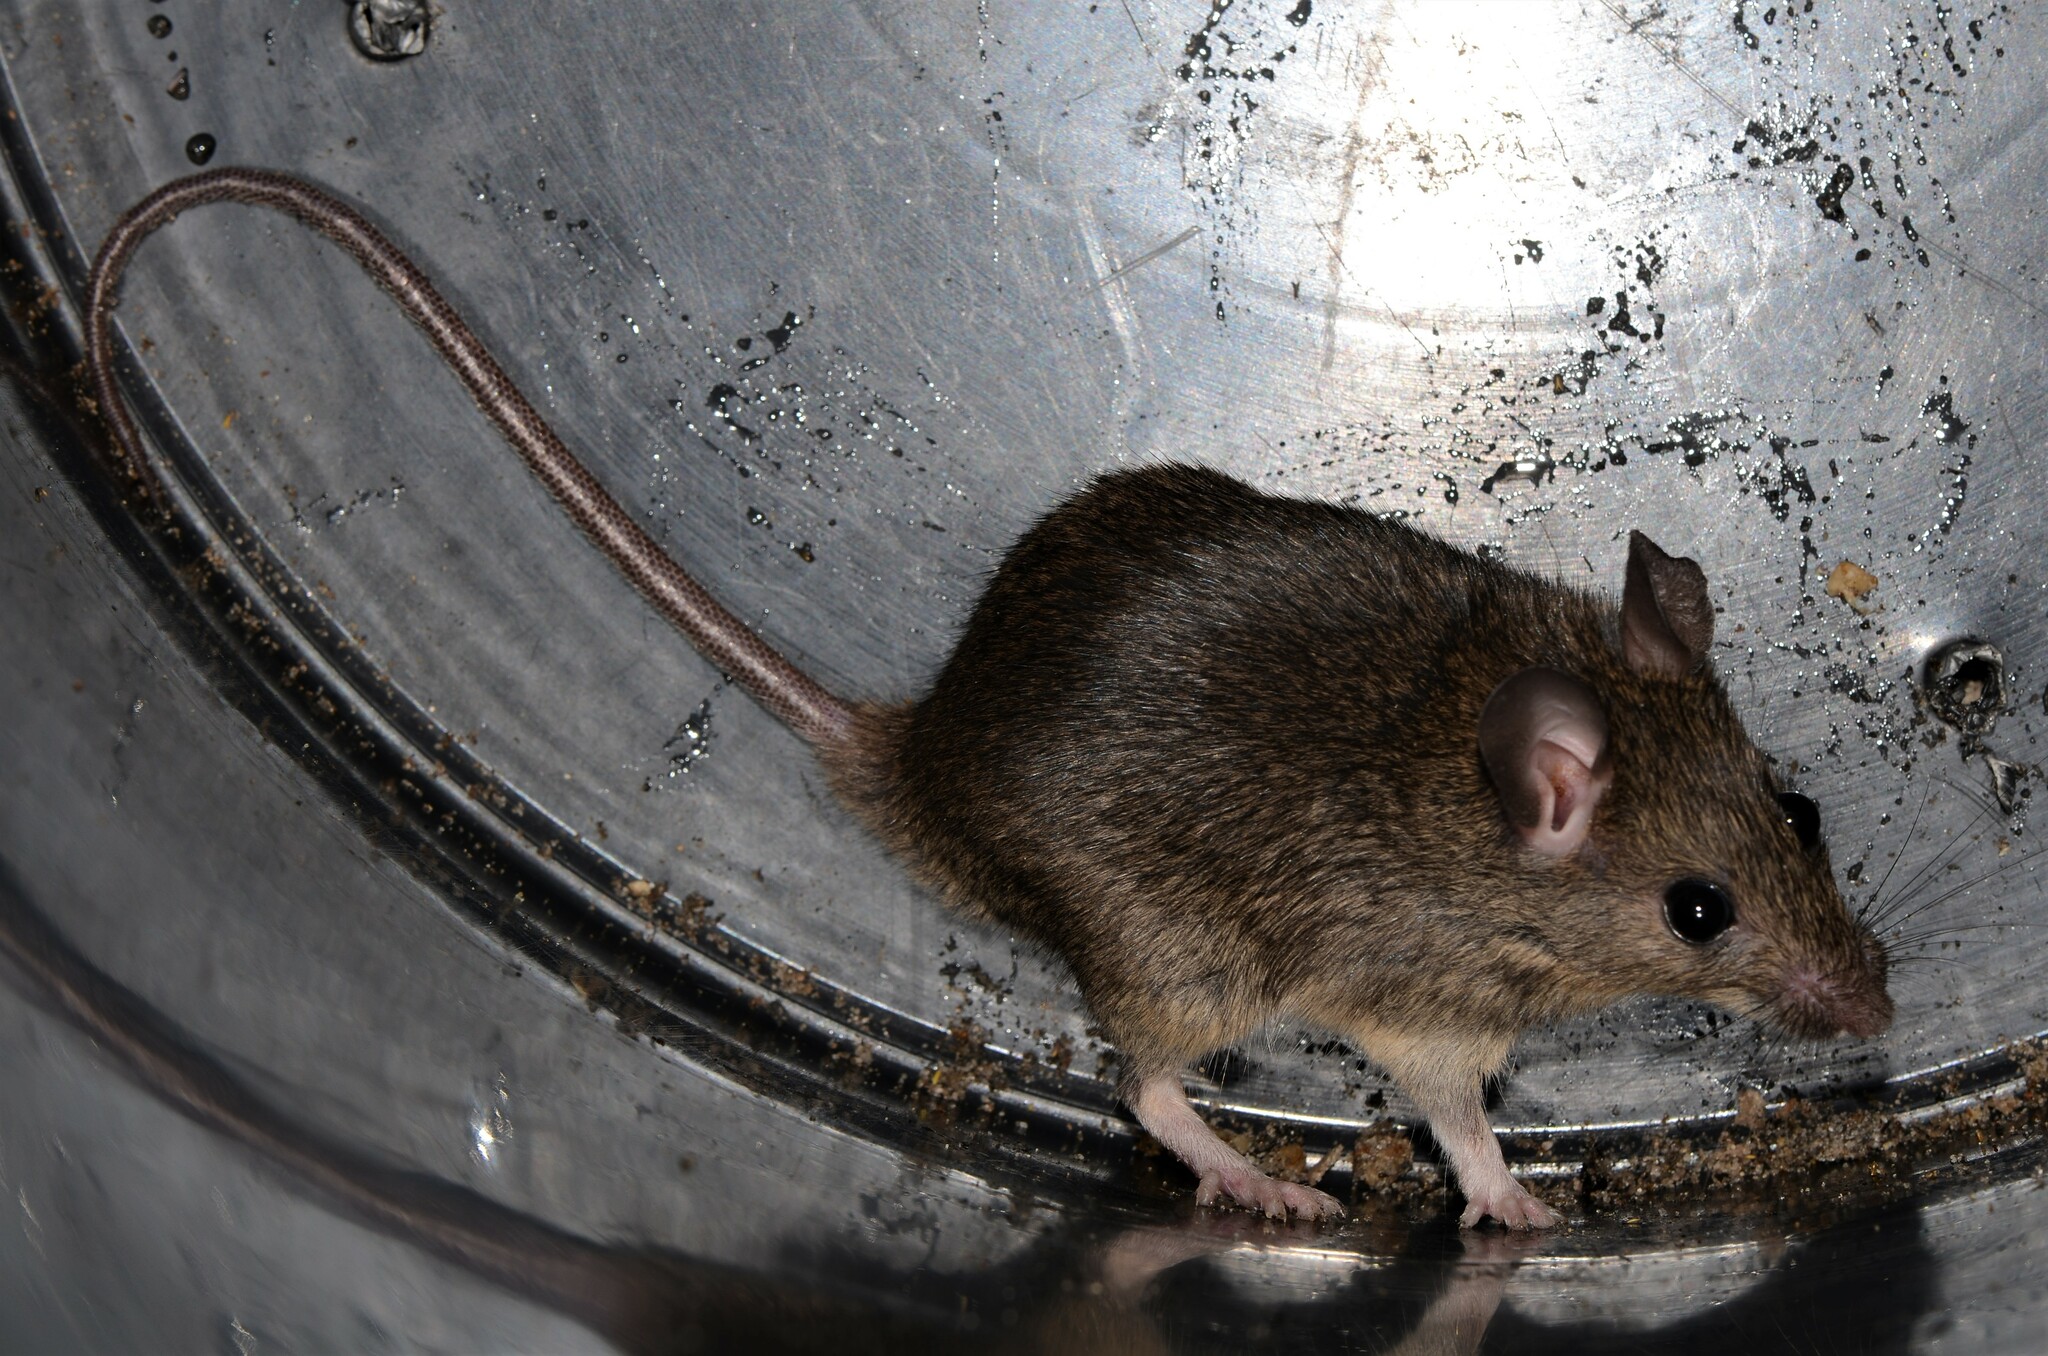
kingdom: Animalia
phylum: Chordata
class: Mammalia
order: Rodentia
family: Muridae
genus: Mastomys
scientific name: Mastomys natalensis
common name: Natal mastomys
